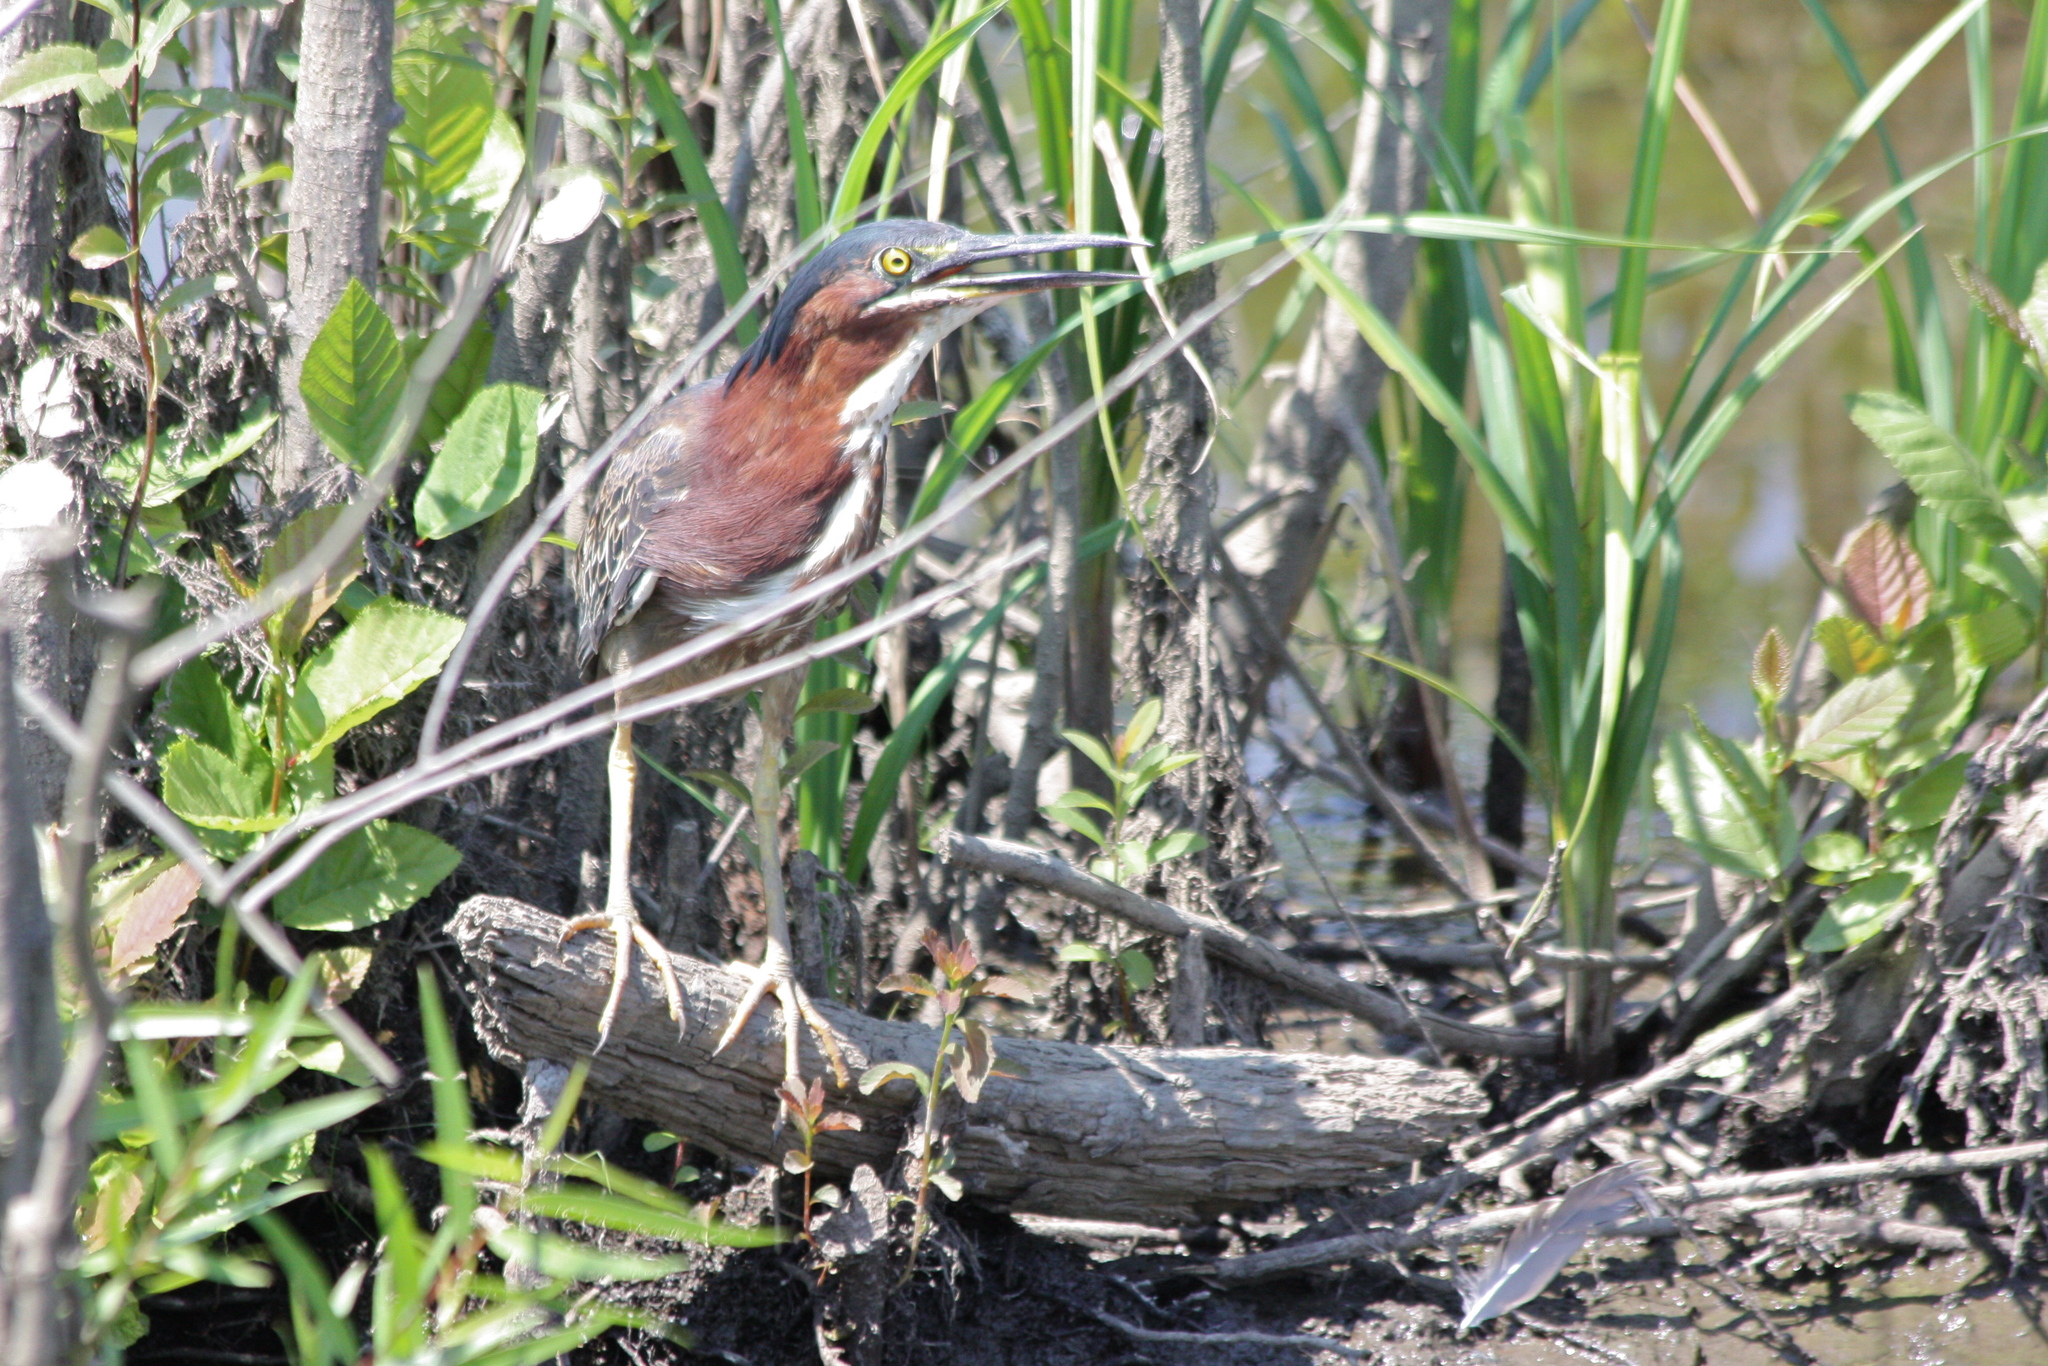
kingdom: Animalia
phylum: Chordata
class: Aves
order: Pelecaniformes
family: Ardeidae
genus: Butorides
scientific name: Butorides virescens
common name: Green heron
